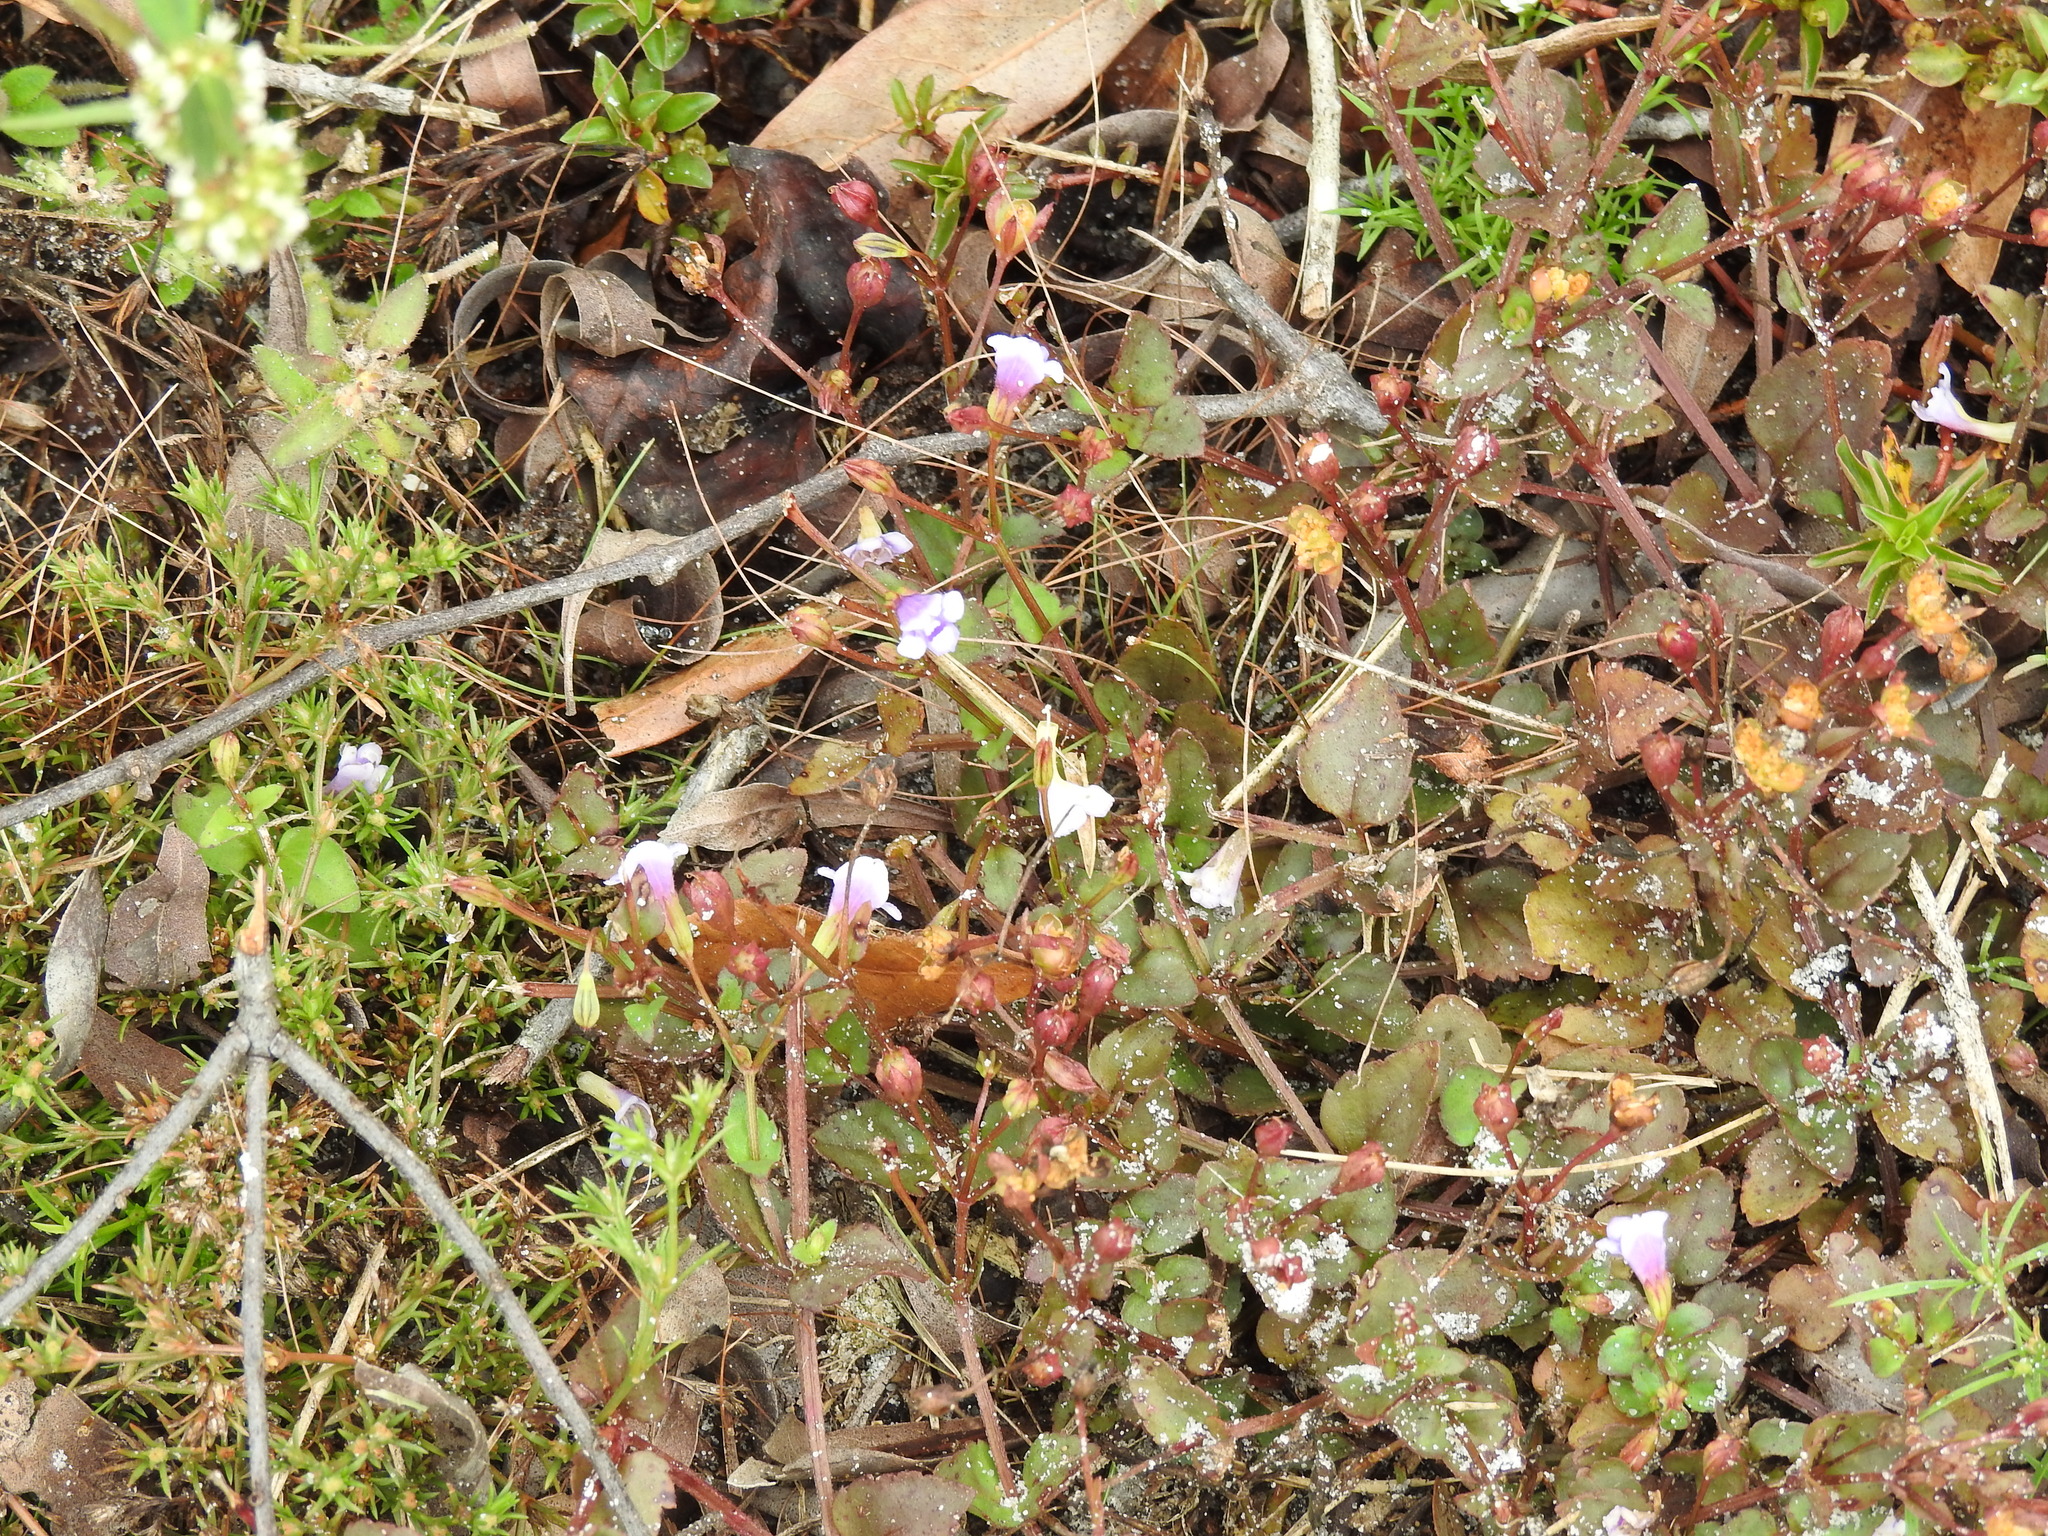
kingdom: Plantae
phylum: Tracheophyta
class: Magnoliopsida
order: Lamiales
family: Linderniaceae
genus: Torenia
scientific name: Torenia crustacea
